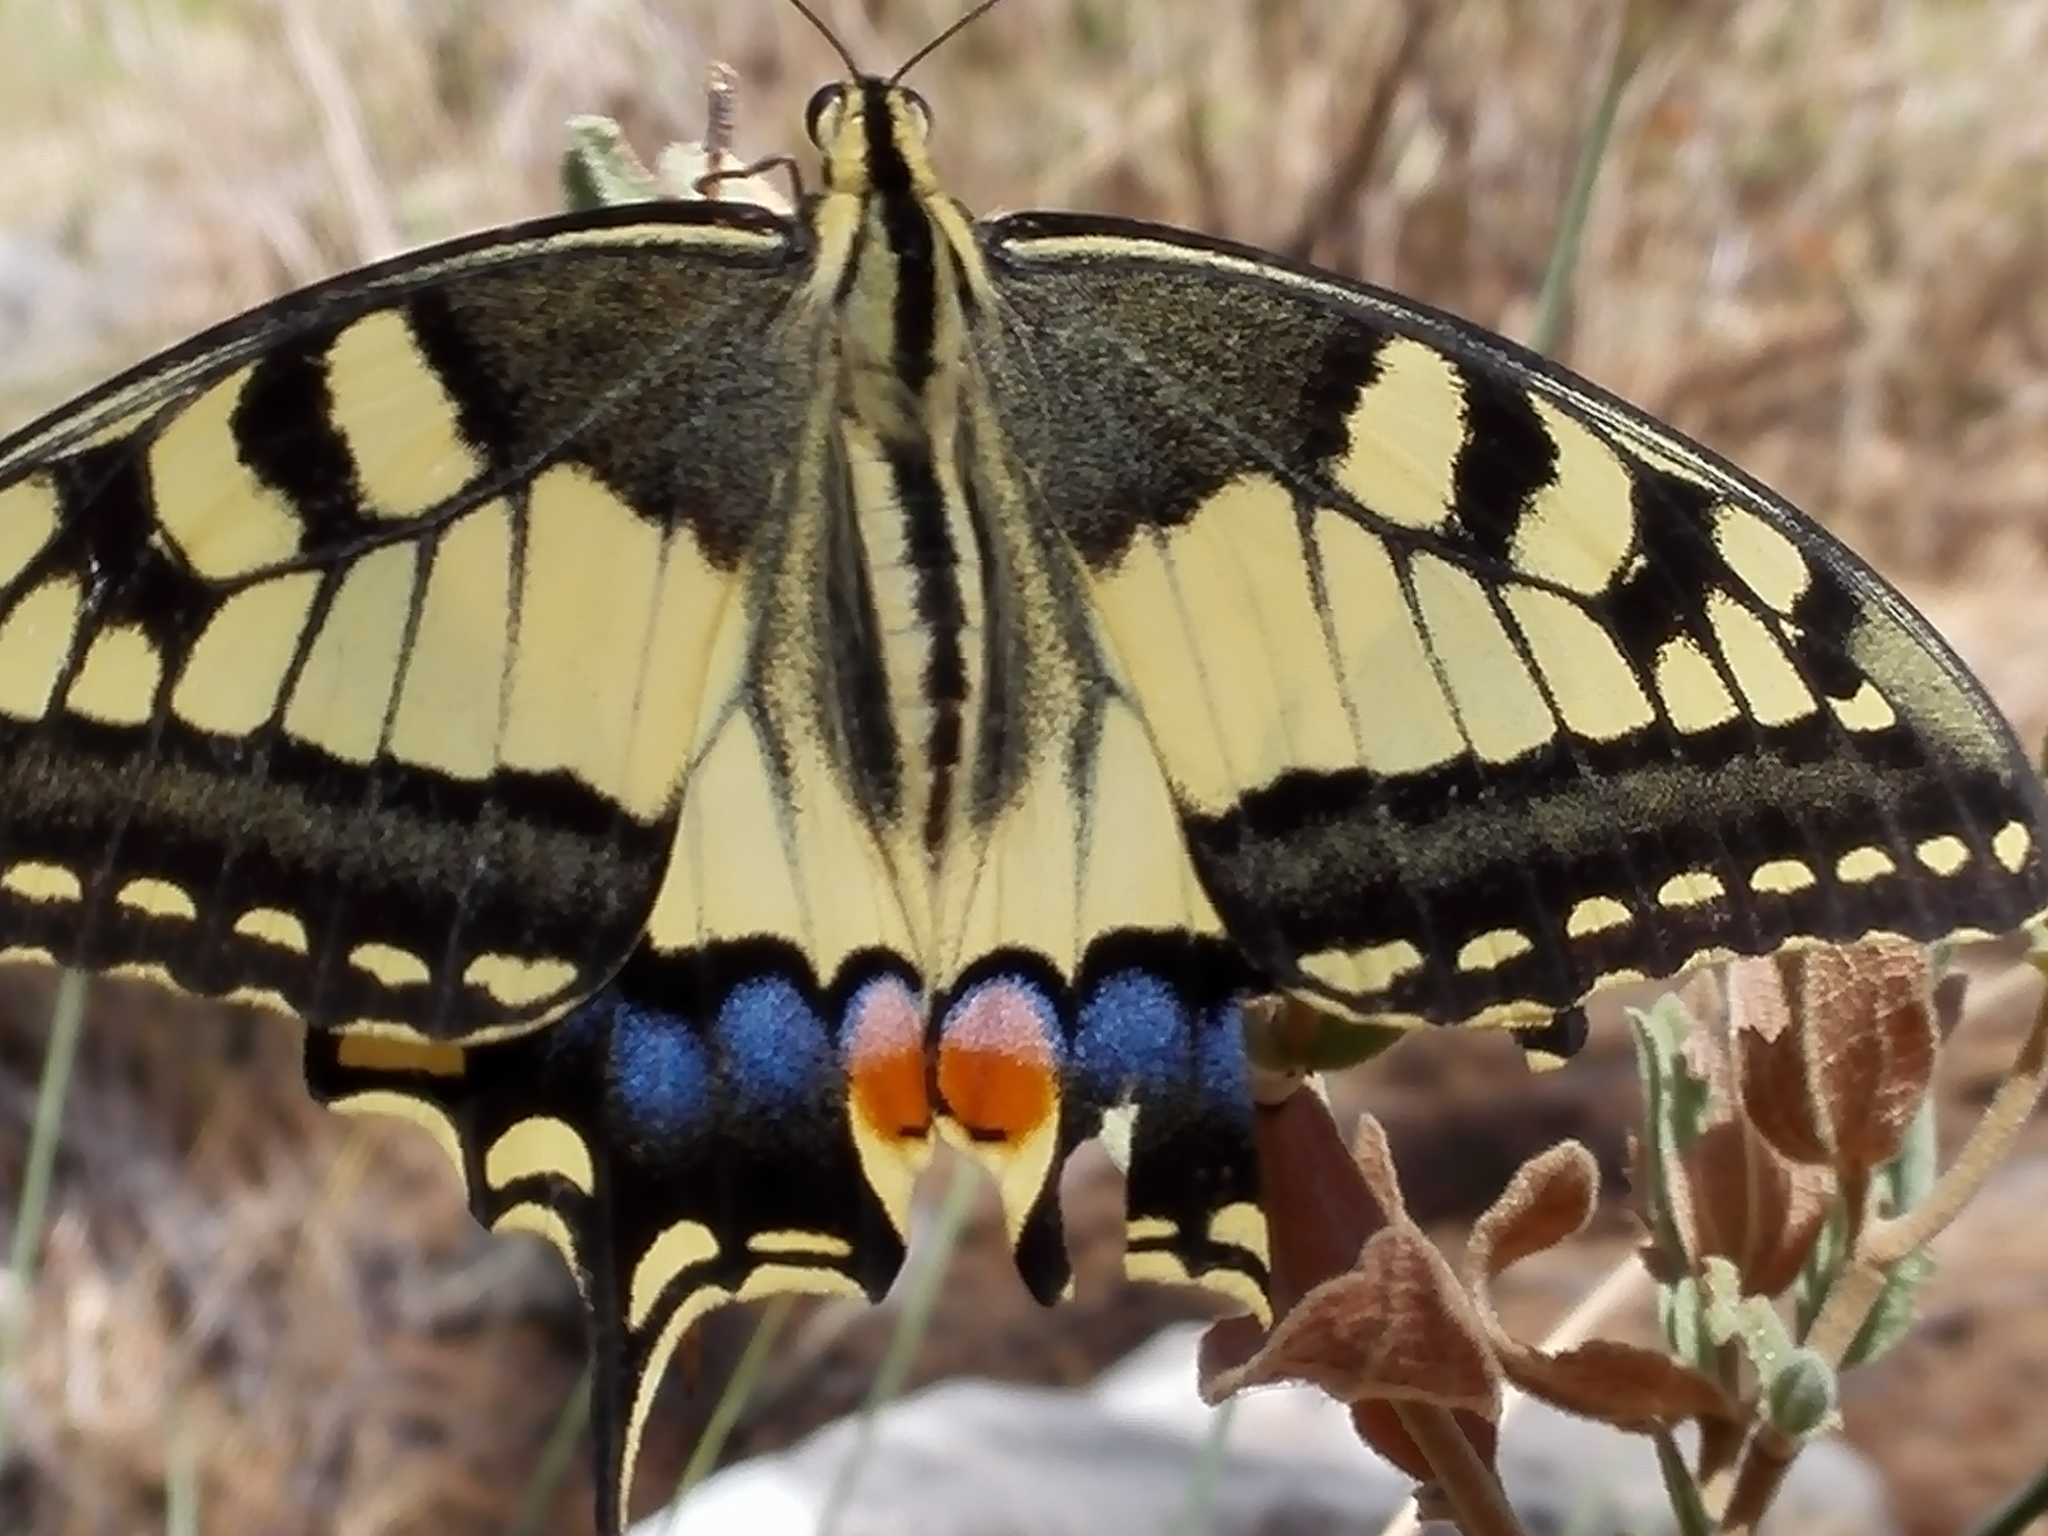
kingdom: Animalia
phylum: Arthropoda
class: Insecta
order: Lepidoptera
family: Papilionidae
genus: Papilio
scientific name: Papilio machaon
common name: Swallowtail
